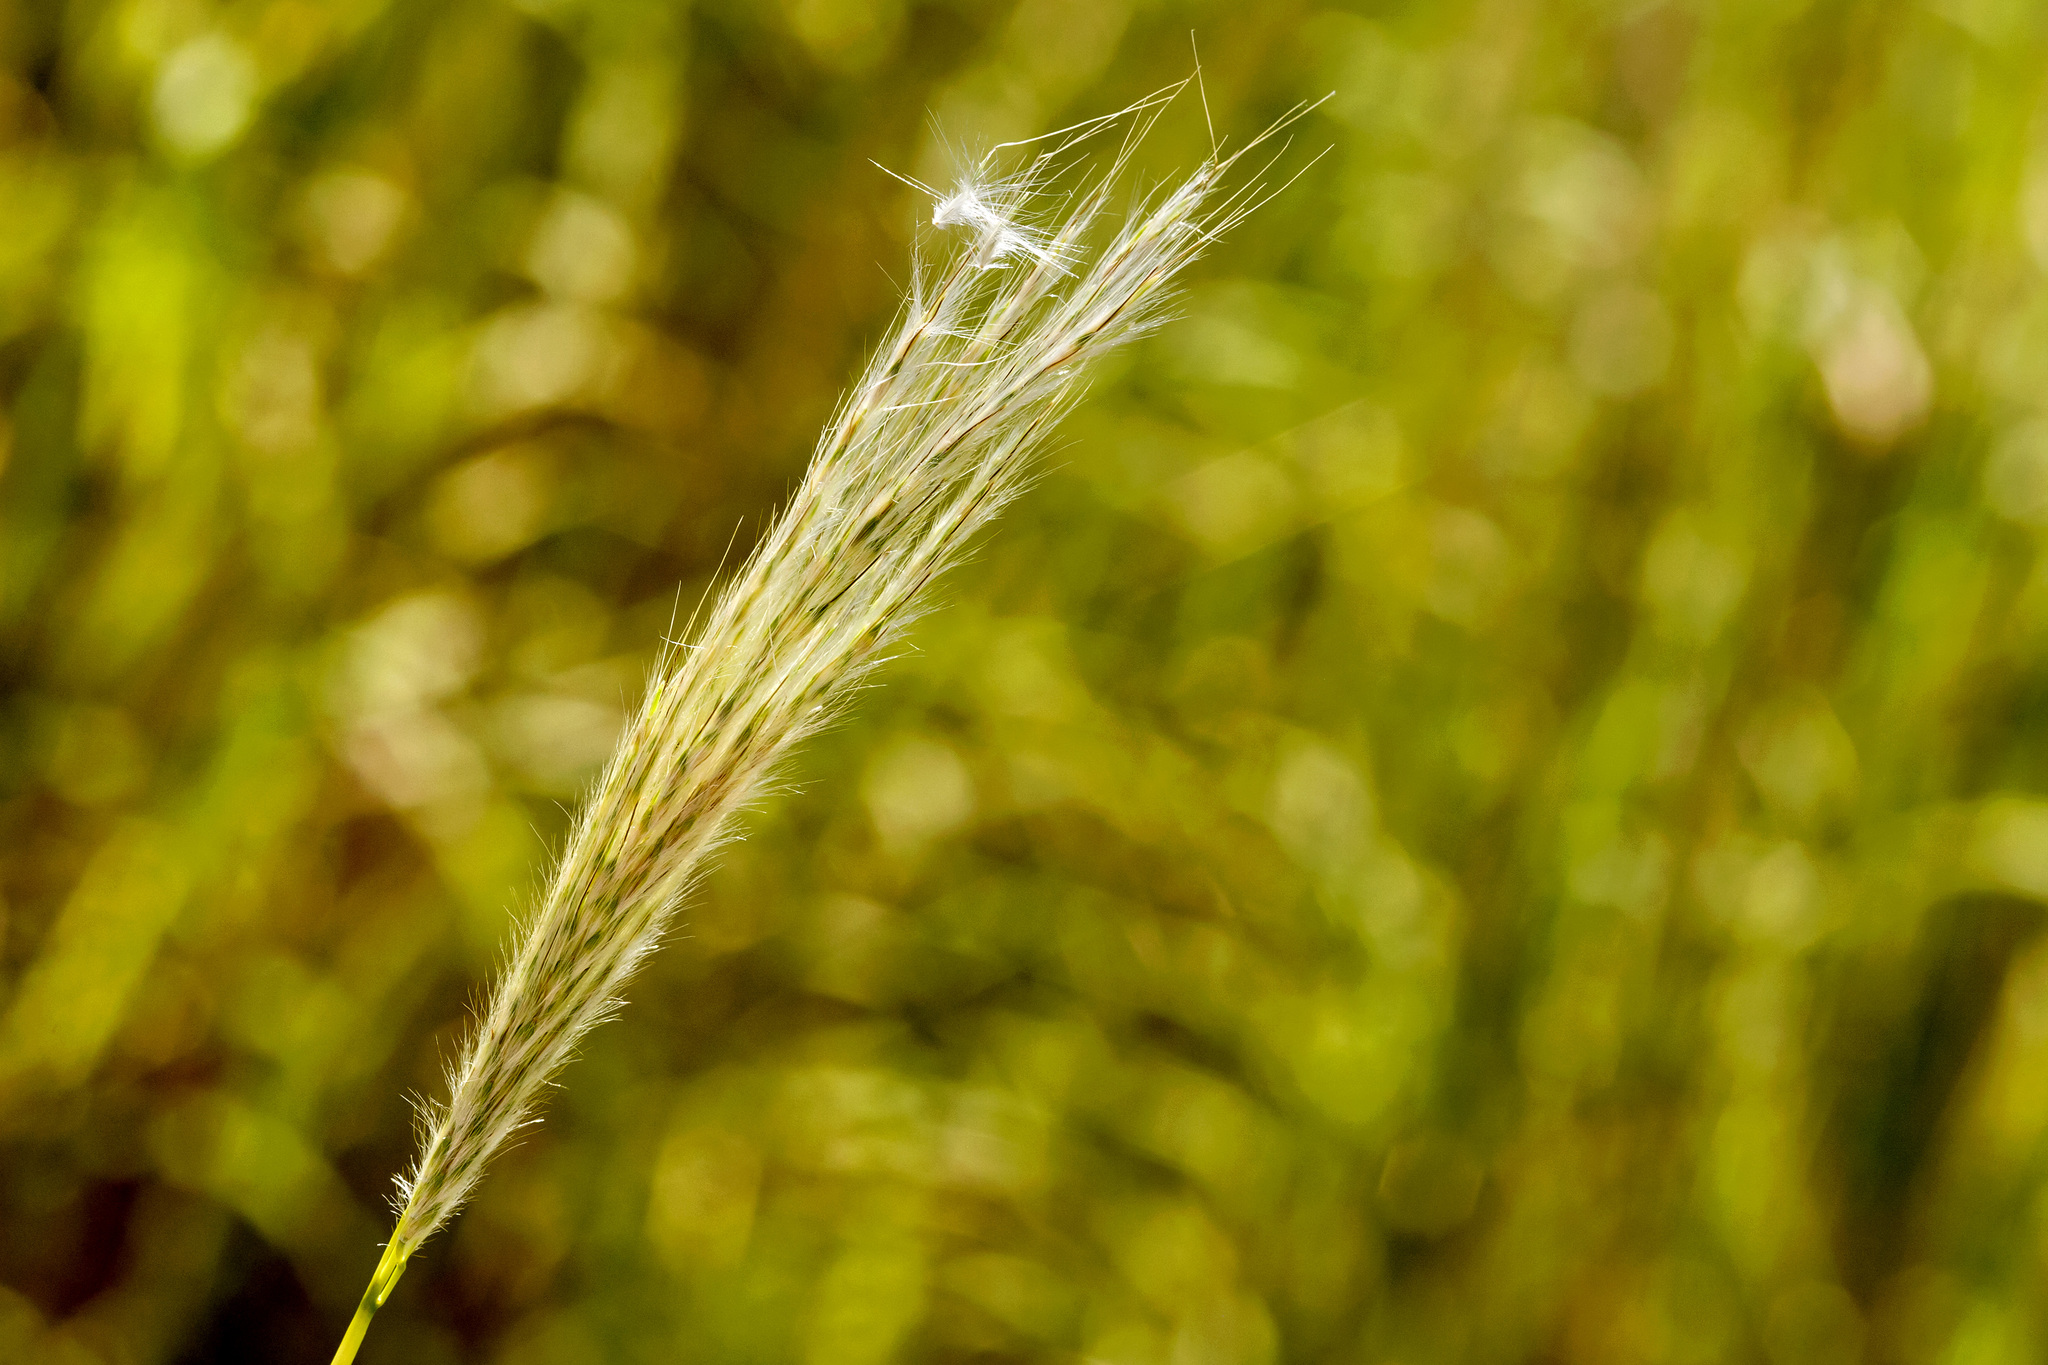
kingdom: Plantae
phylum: Tracheophyta
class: Liliopsida
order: Poales
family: Poaceae
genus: Bothriochloa
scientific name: Bothriochloa barbinodis
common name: Cane bluestem
